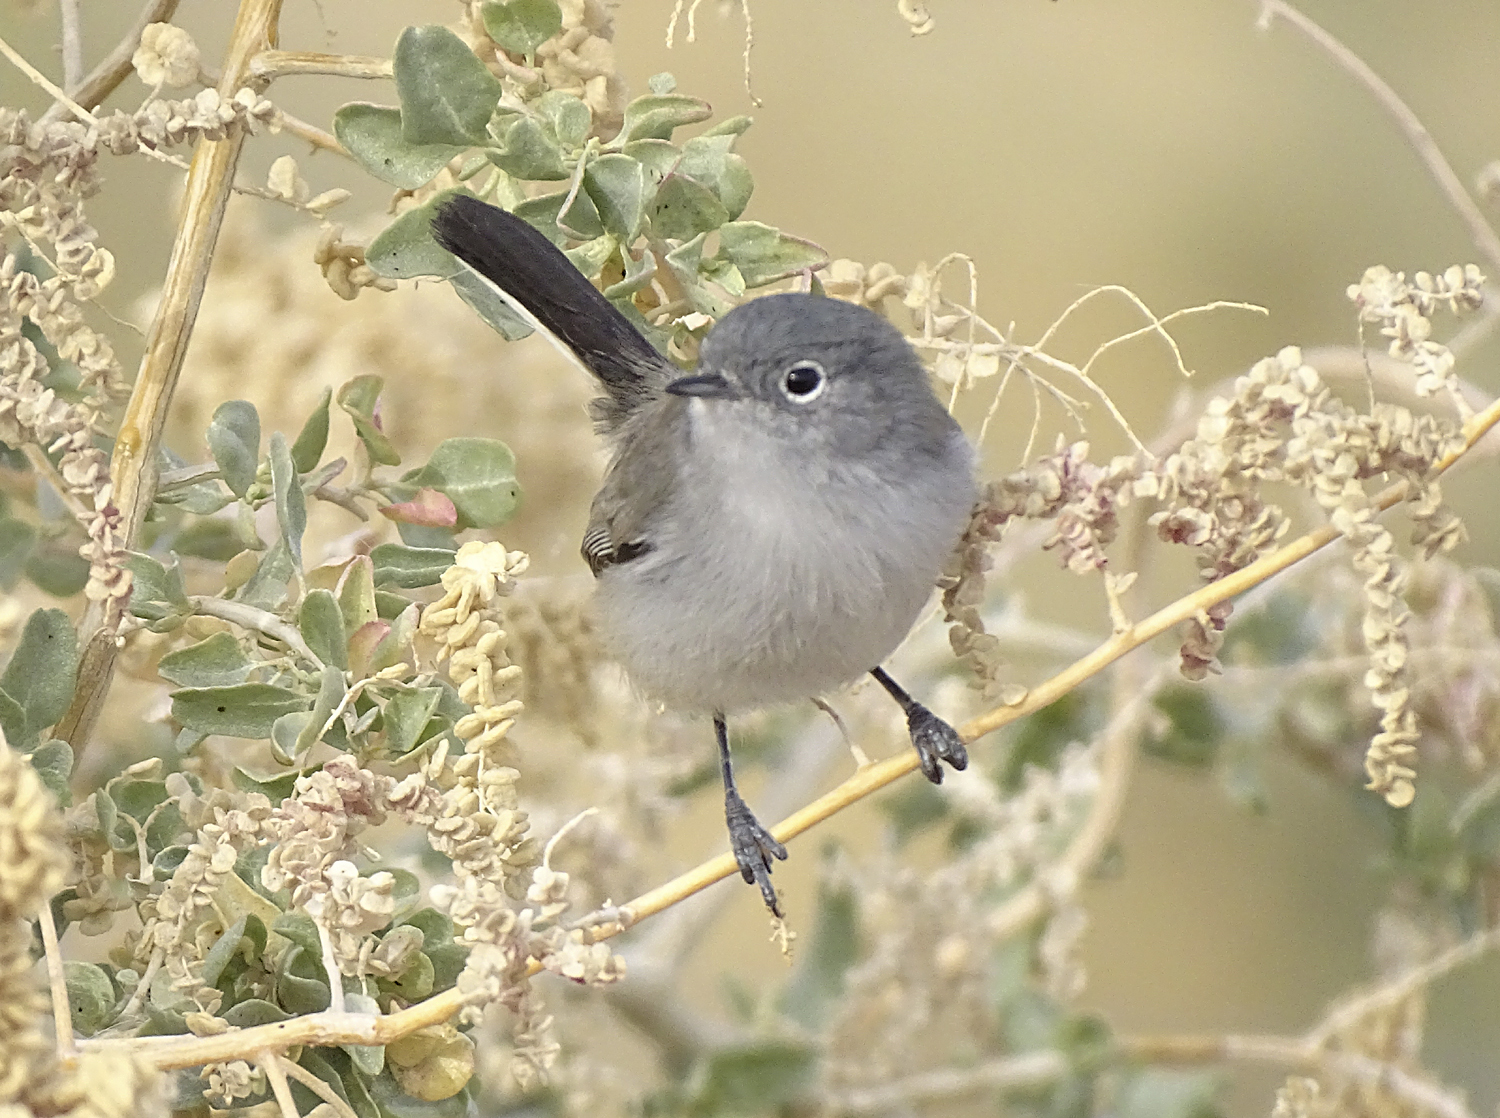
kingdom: Animalia
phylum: Chordata
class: Aves
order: Passeriformes
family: Polioptilidae
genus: Polioptila
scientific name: Polioptila melanura
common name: Black-tailed gnatcatcher
